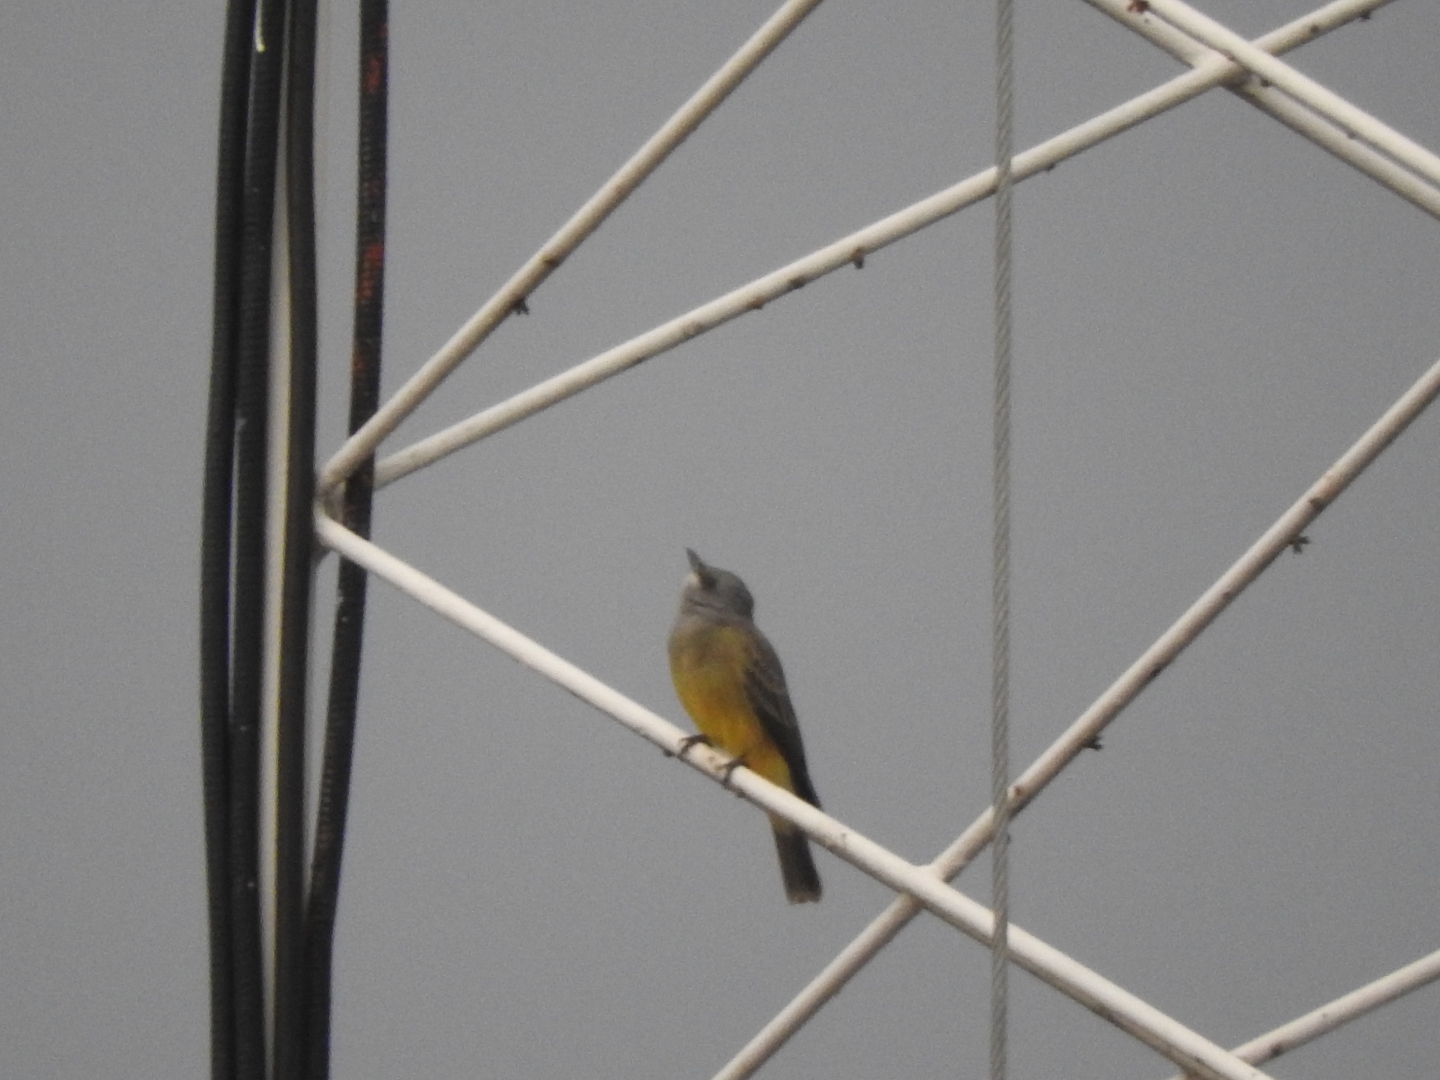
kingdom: Animalia
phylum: Chordata
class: Aves
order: Passeriformes
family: Tyrannidae
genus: Tyrannus
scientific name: Tyrannus vociferans
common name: Cassin's kingbird
